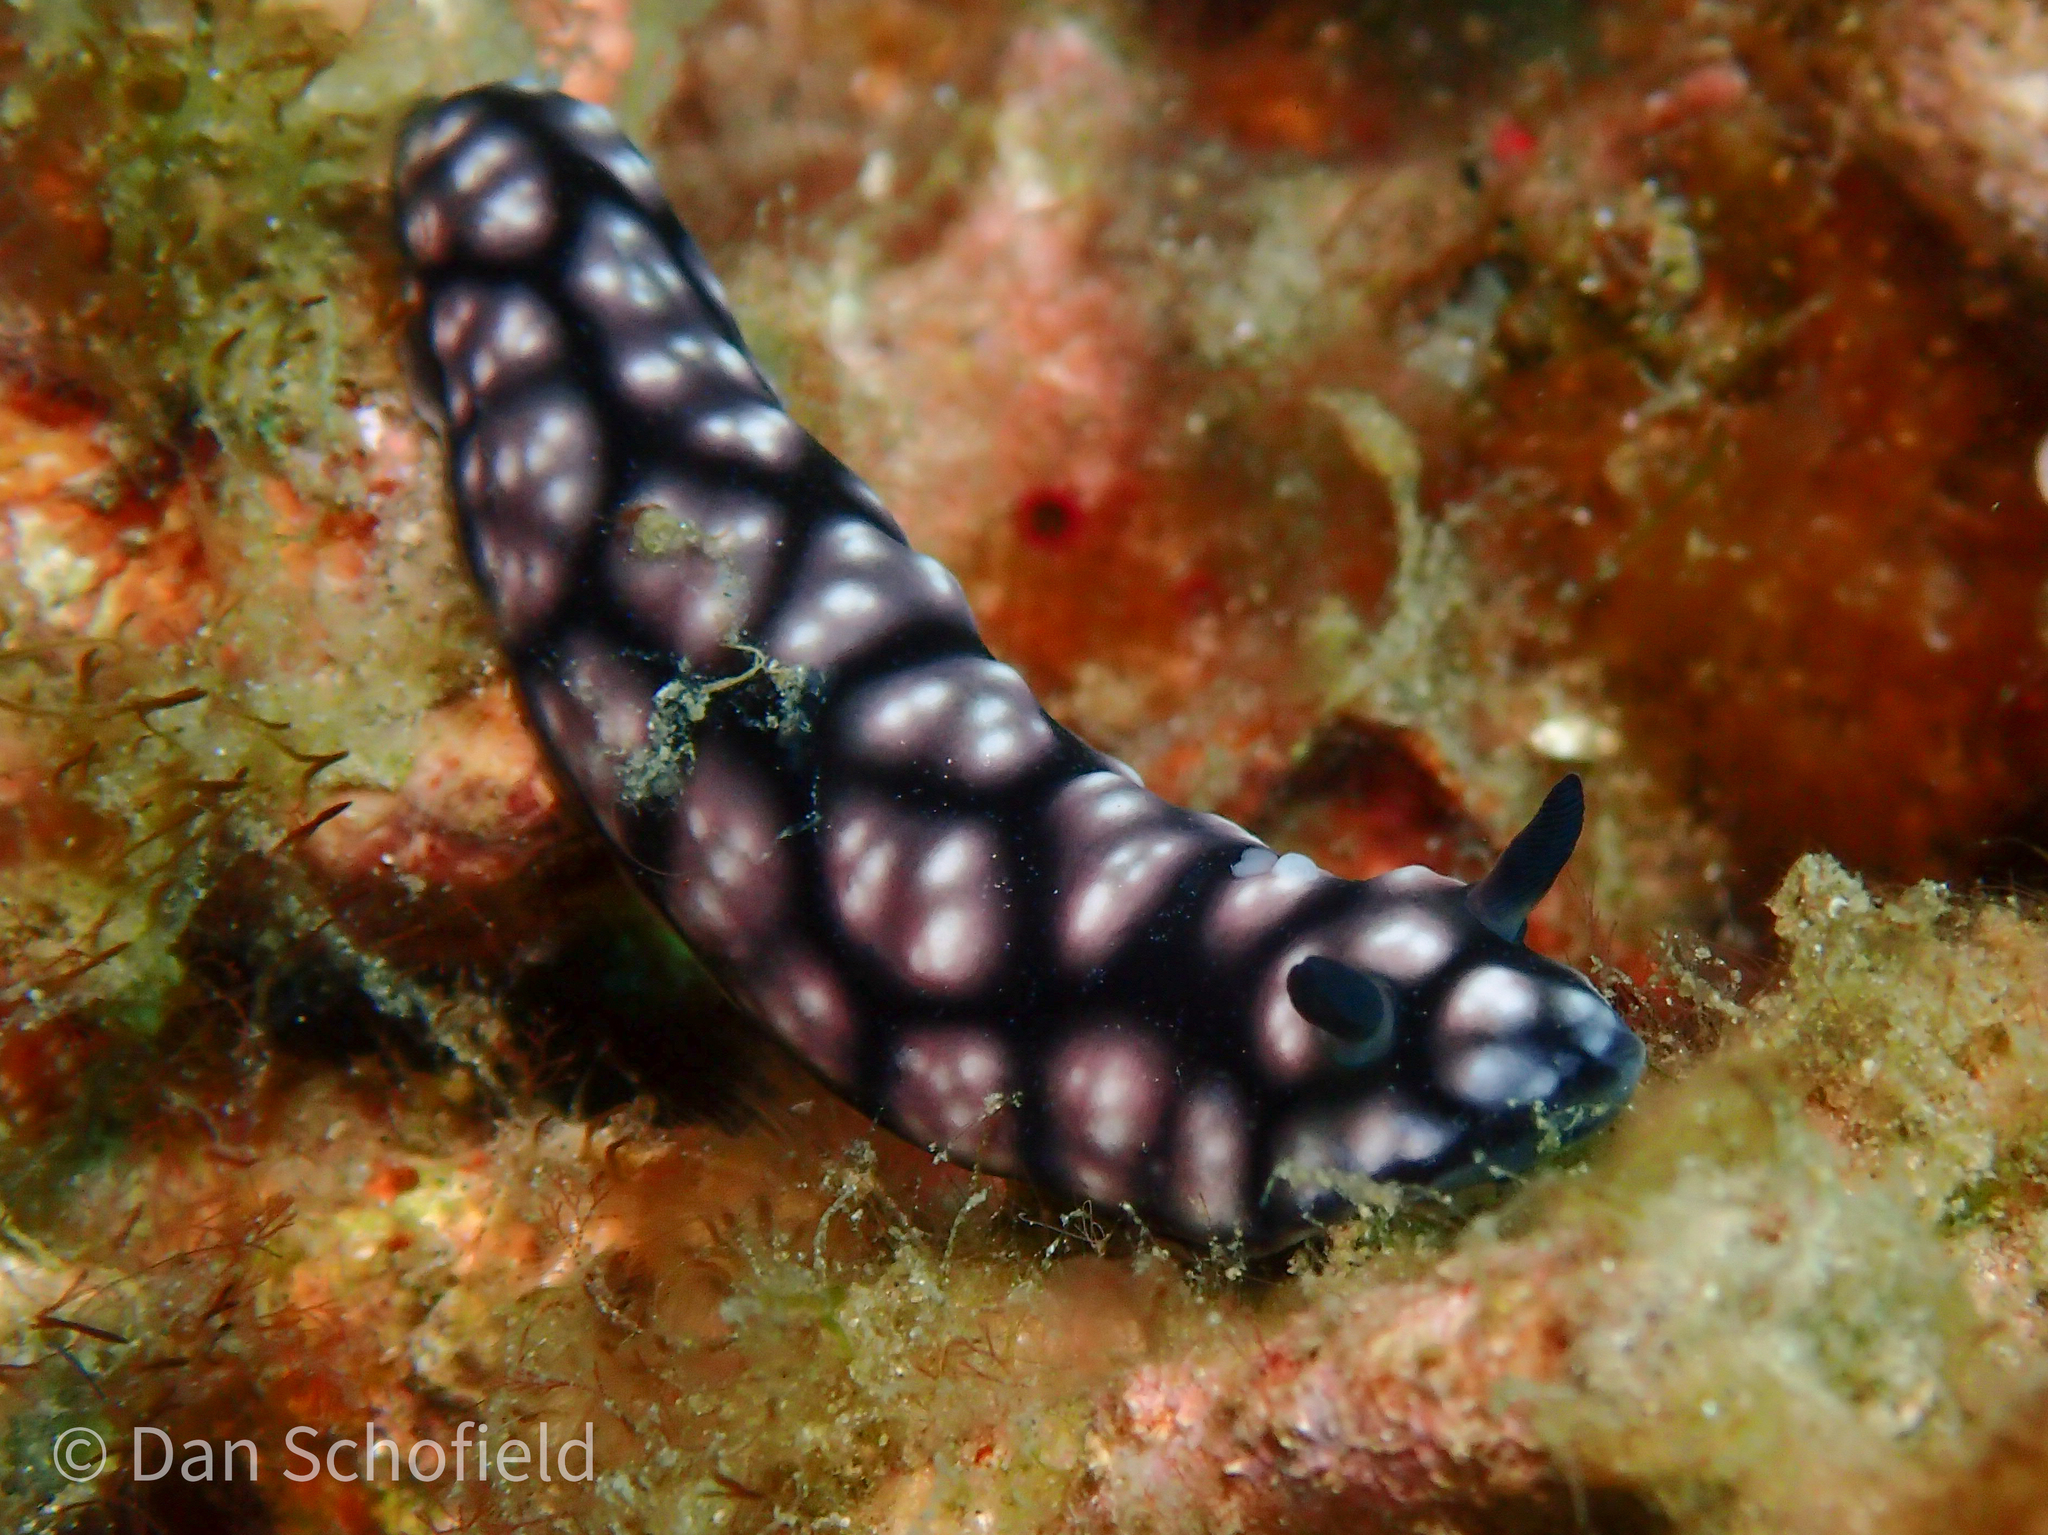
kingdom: Animalia
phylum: Mollusca
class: Gastropoda
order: Nudibranchia
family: Phyllidiidae
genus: Phyllidiella
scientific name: Phyllidiella pustulosa
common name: Pustular phyllidia
